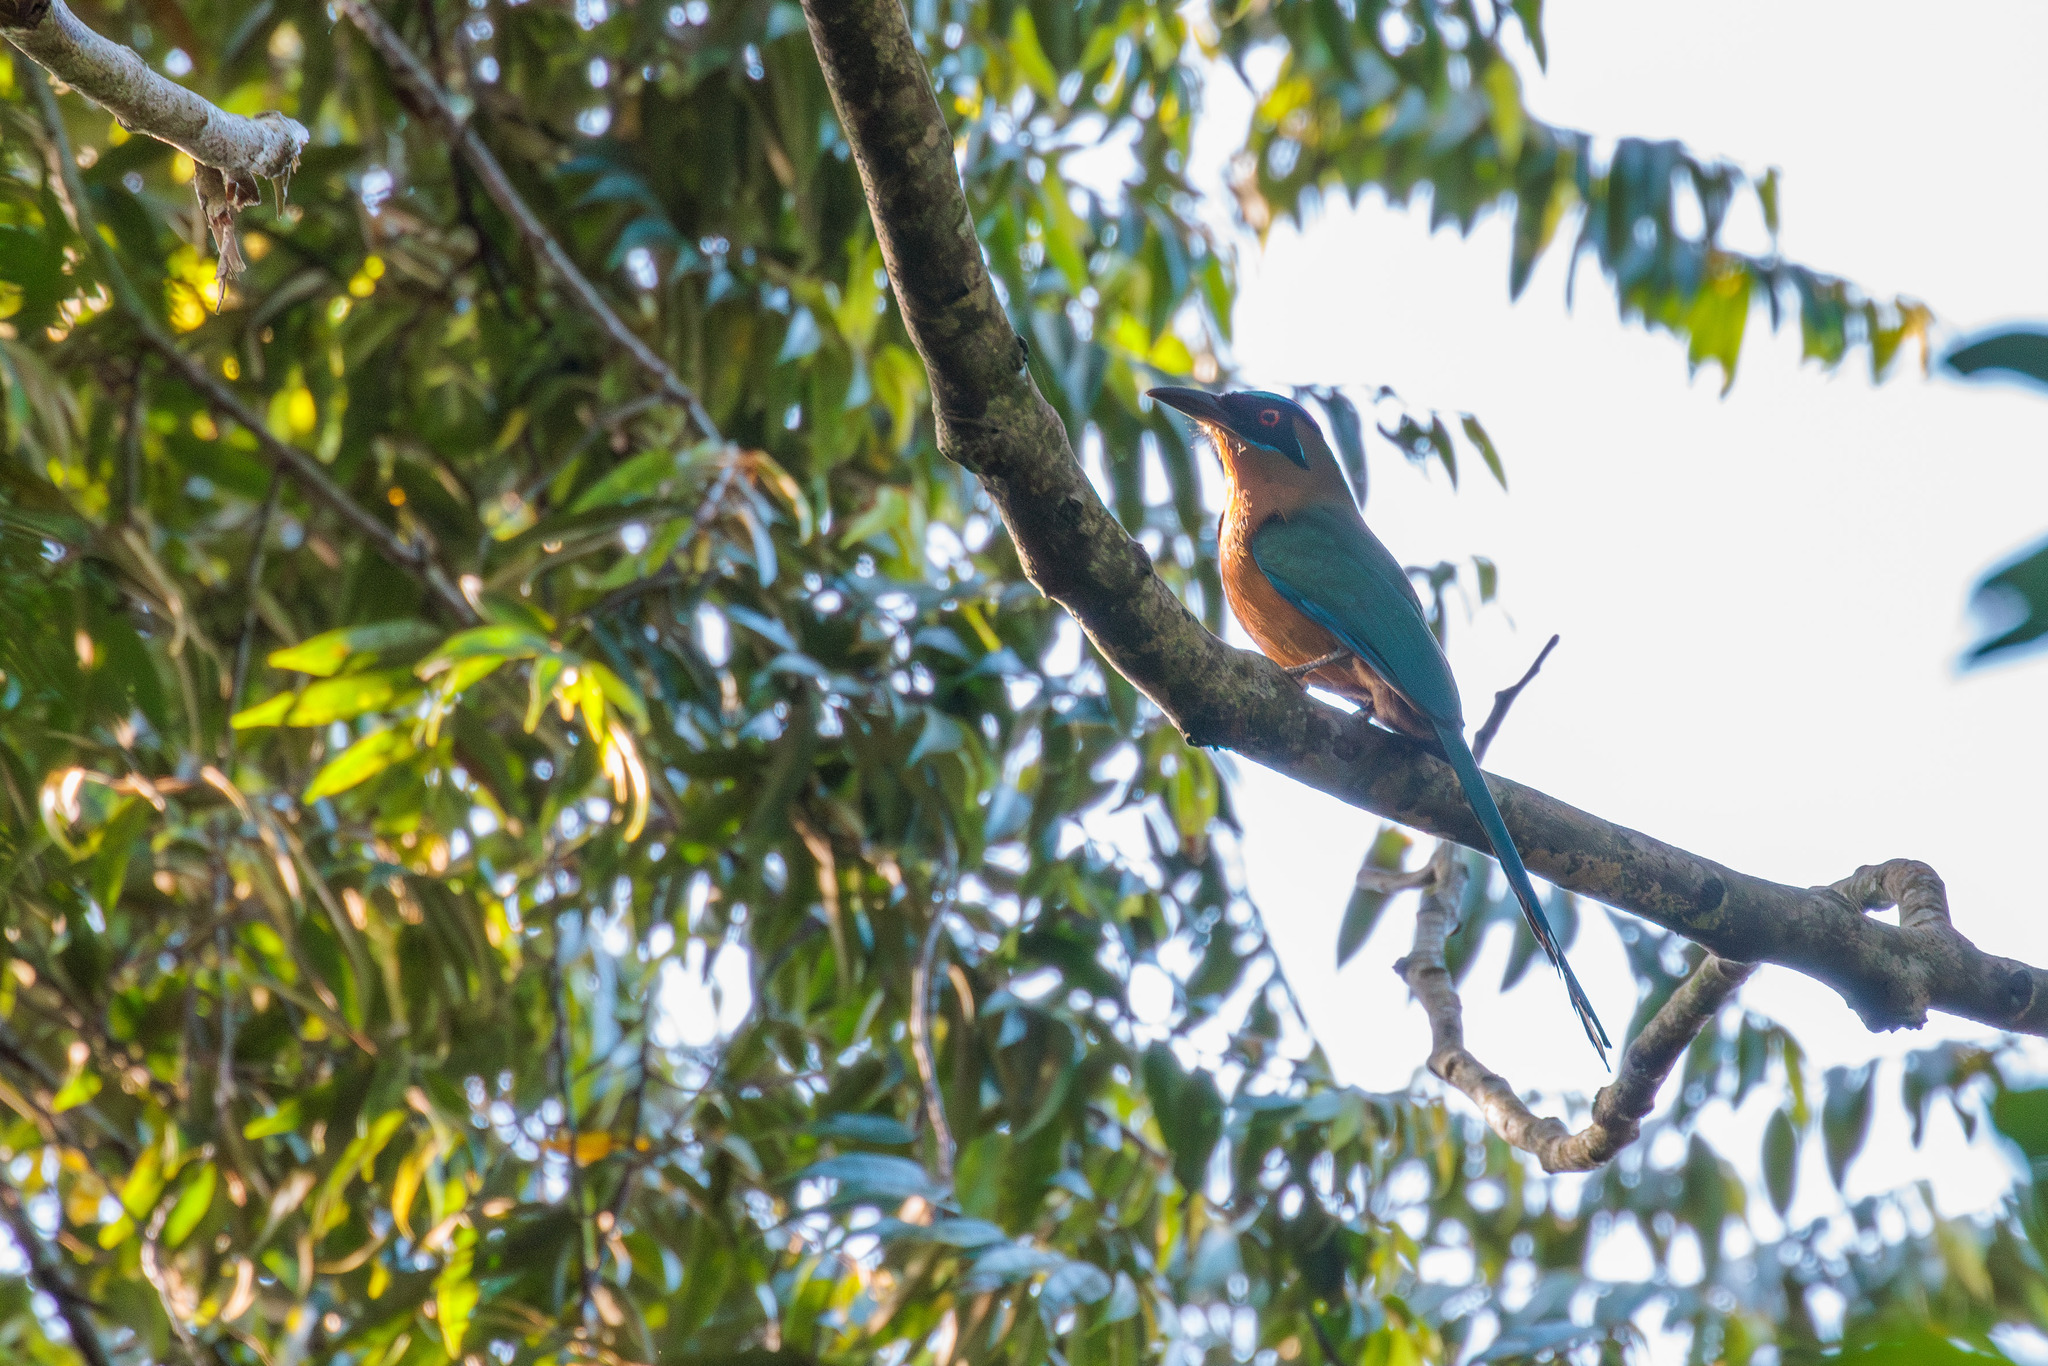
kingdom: Animalia
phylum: Chordata
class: Aves
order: Coraciiformes
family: Momotidae
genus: Momotus
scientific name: Momotus momota
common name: Amazonian motmot
